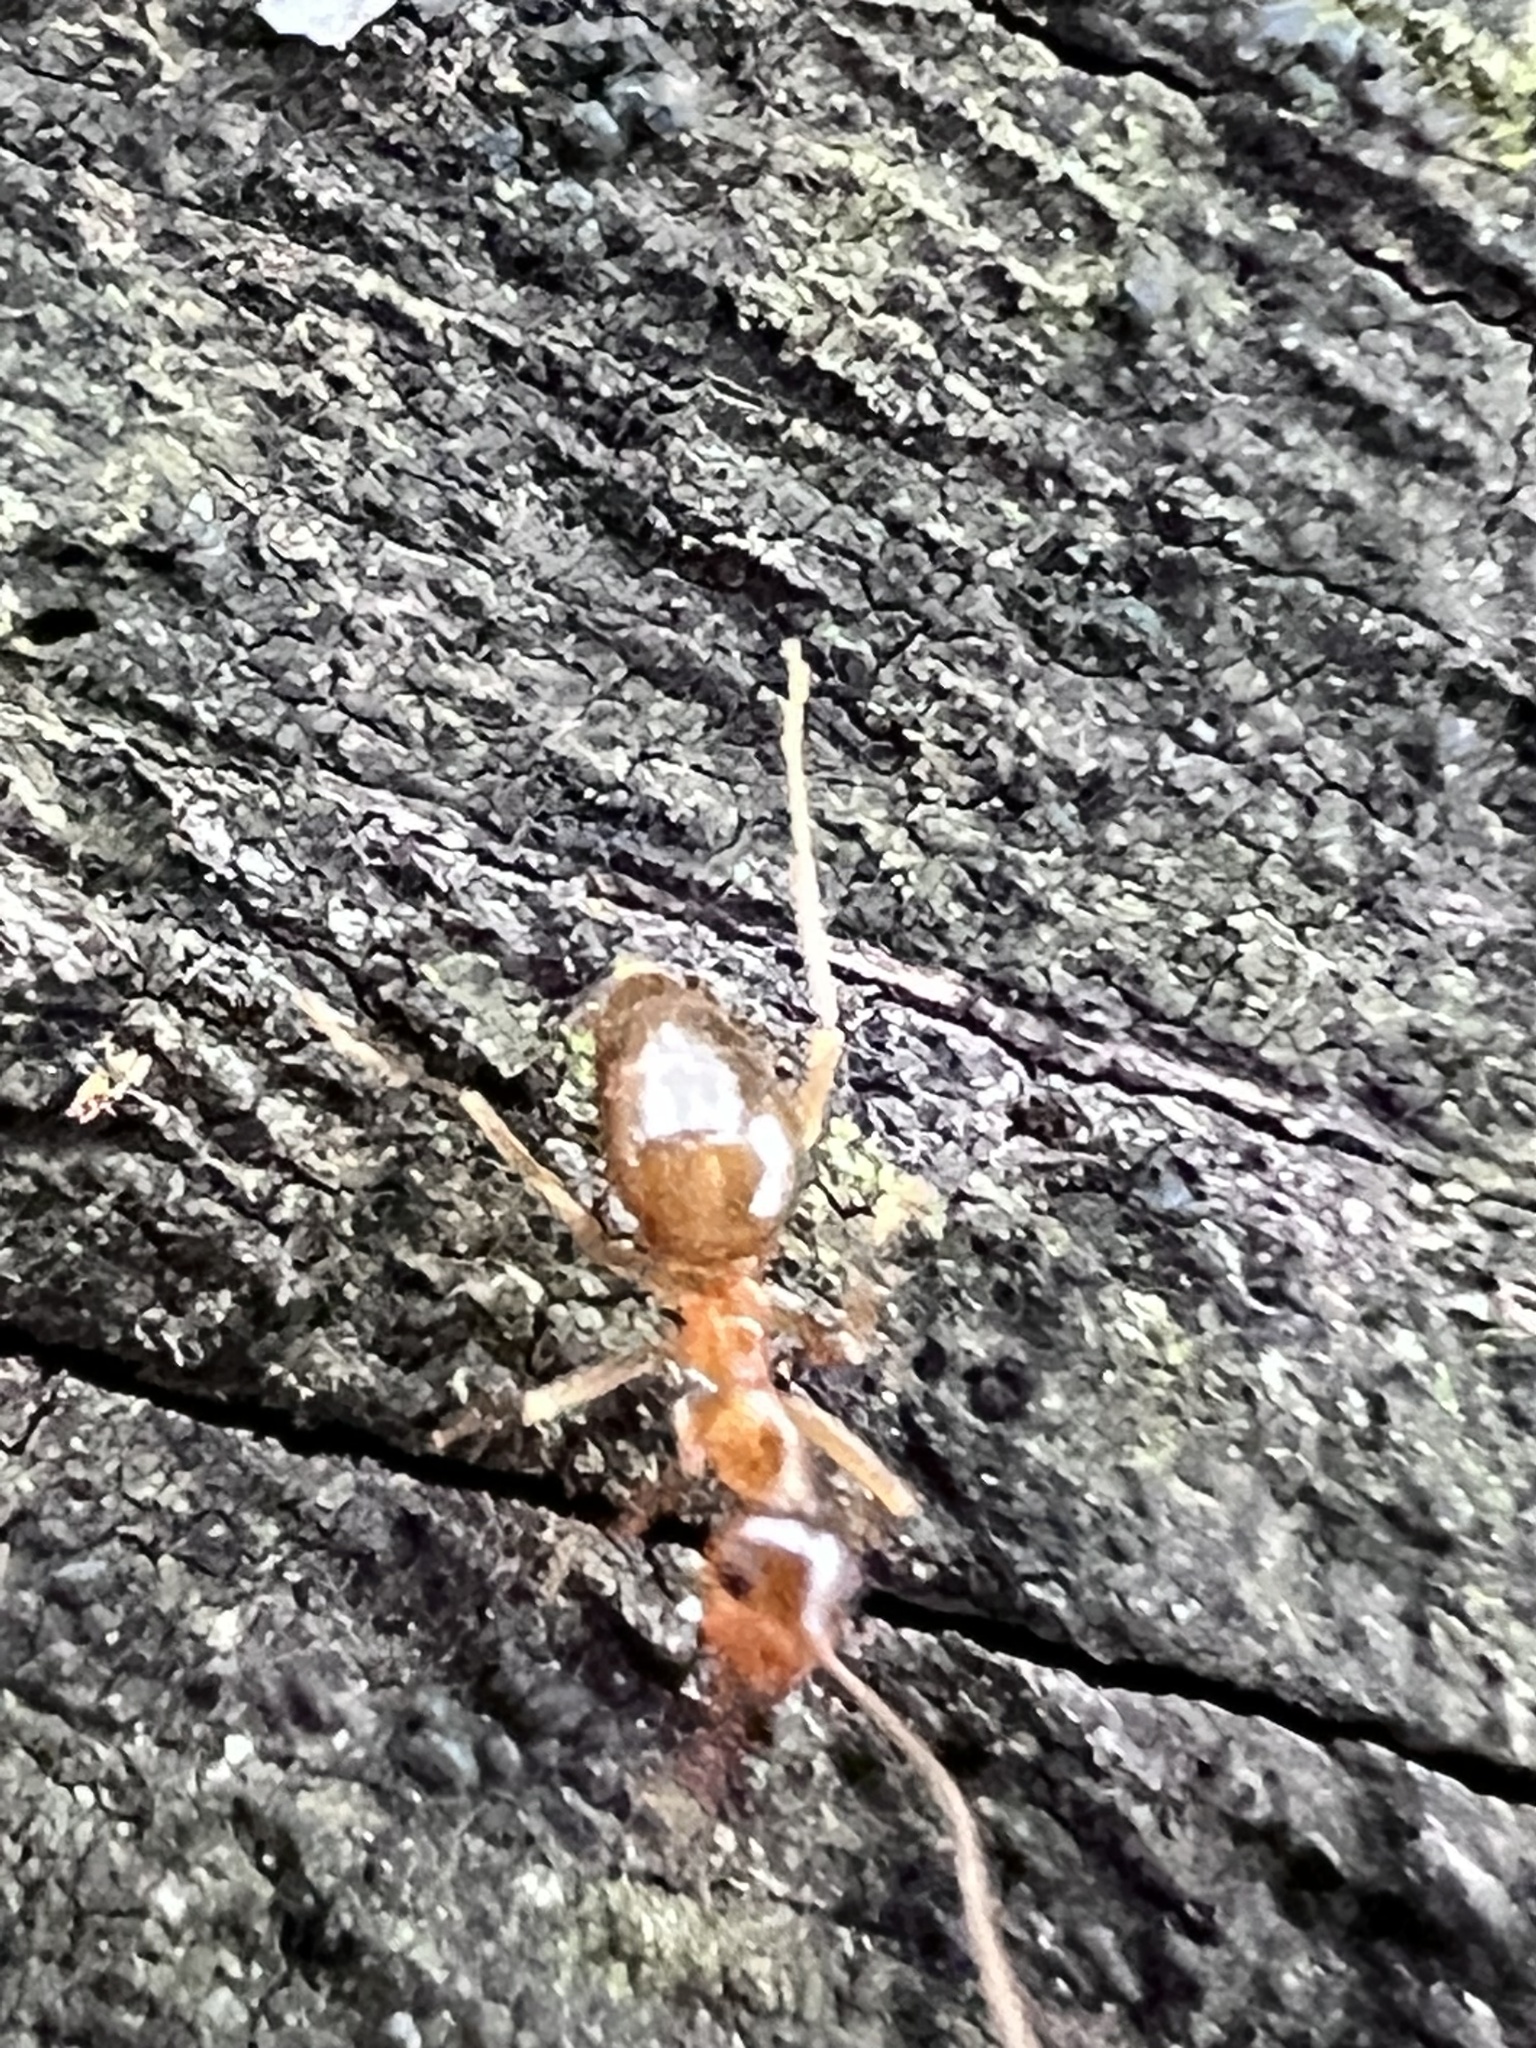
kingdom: Animalia
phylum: Arthropoda
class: Insecta
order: Hymenoptera
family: Formicidae
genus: Prenolepis
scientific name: Prenolepis imparis
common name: Small honey ant
